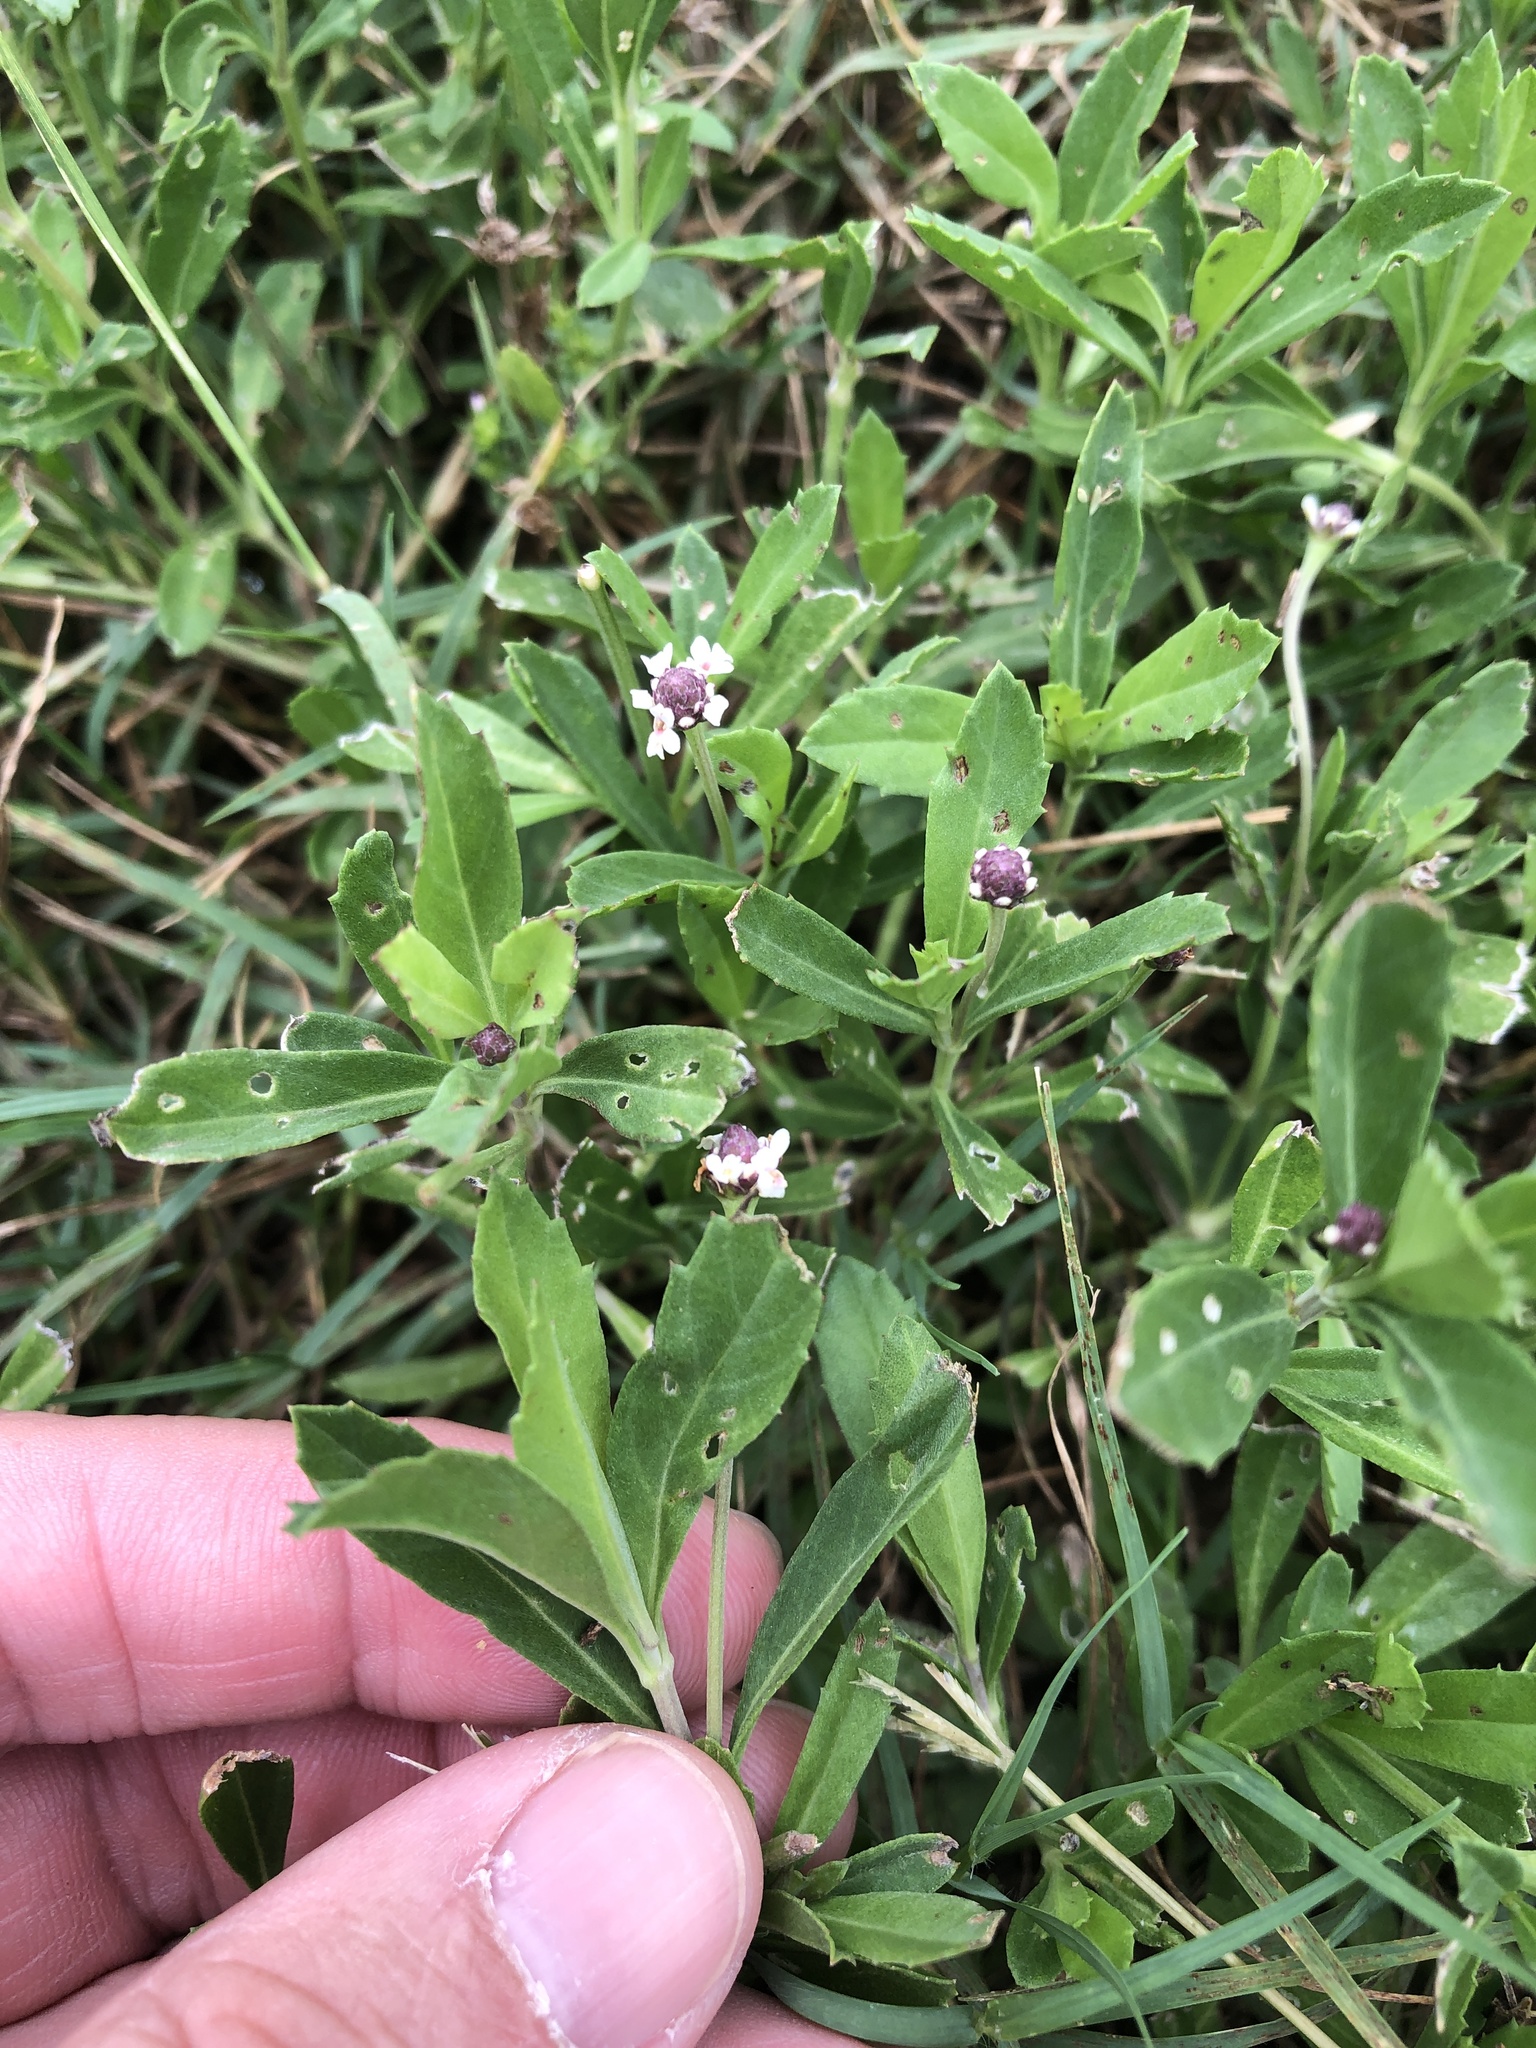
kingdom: Plantae
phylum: Tracheophyta
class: Magnoliopsida
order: Lamiales
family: Verbenaceae
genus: Phyla
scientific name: Phyla nodiflora
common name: Frogfruit
